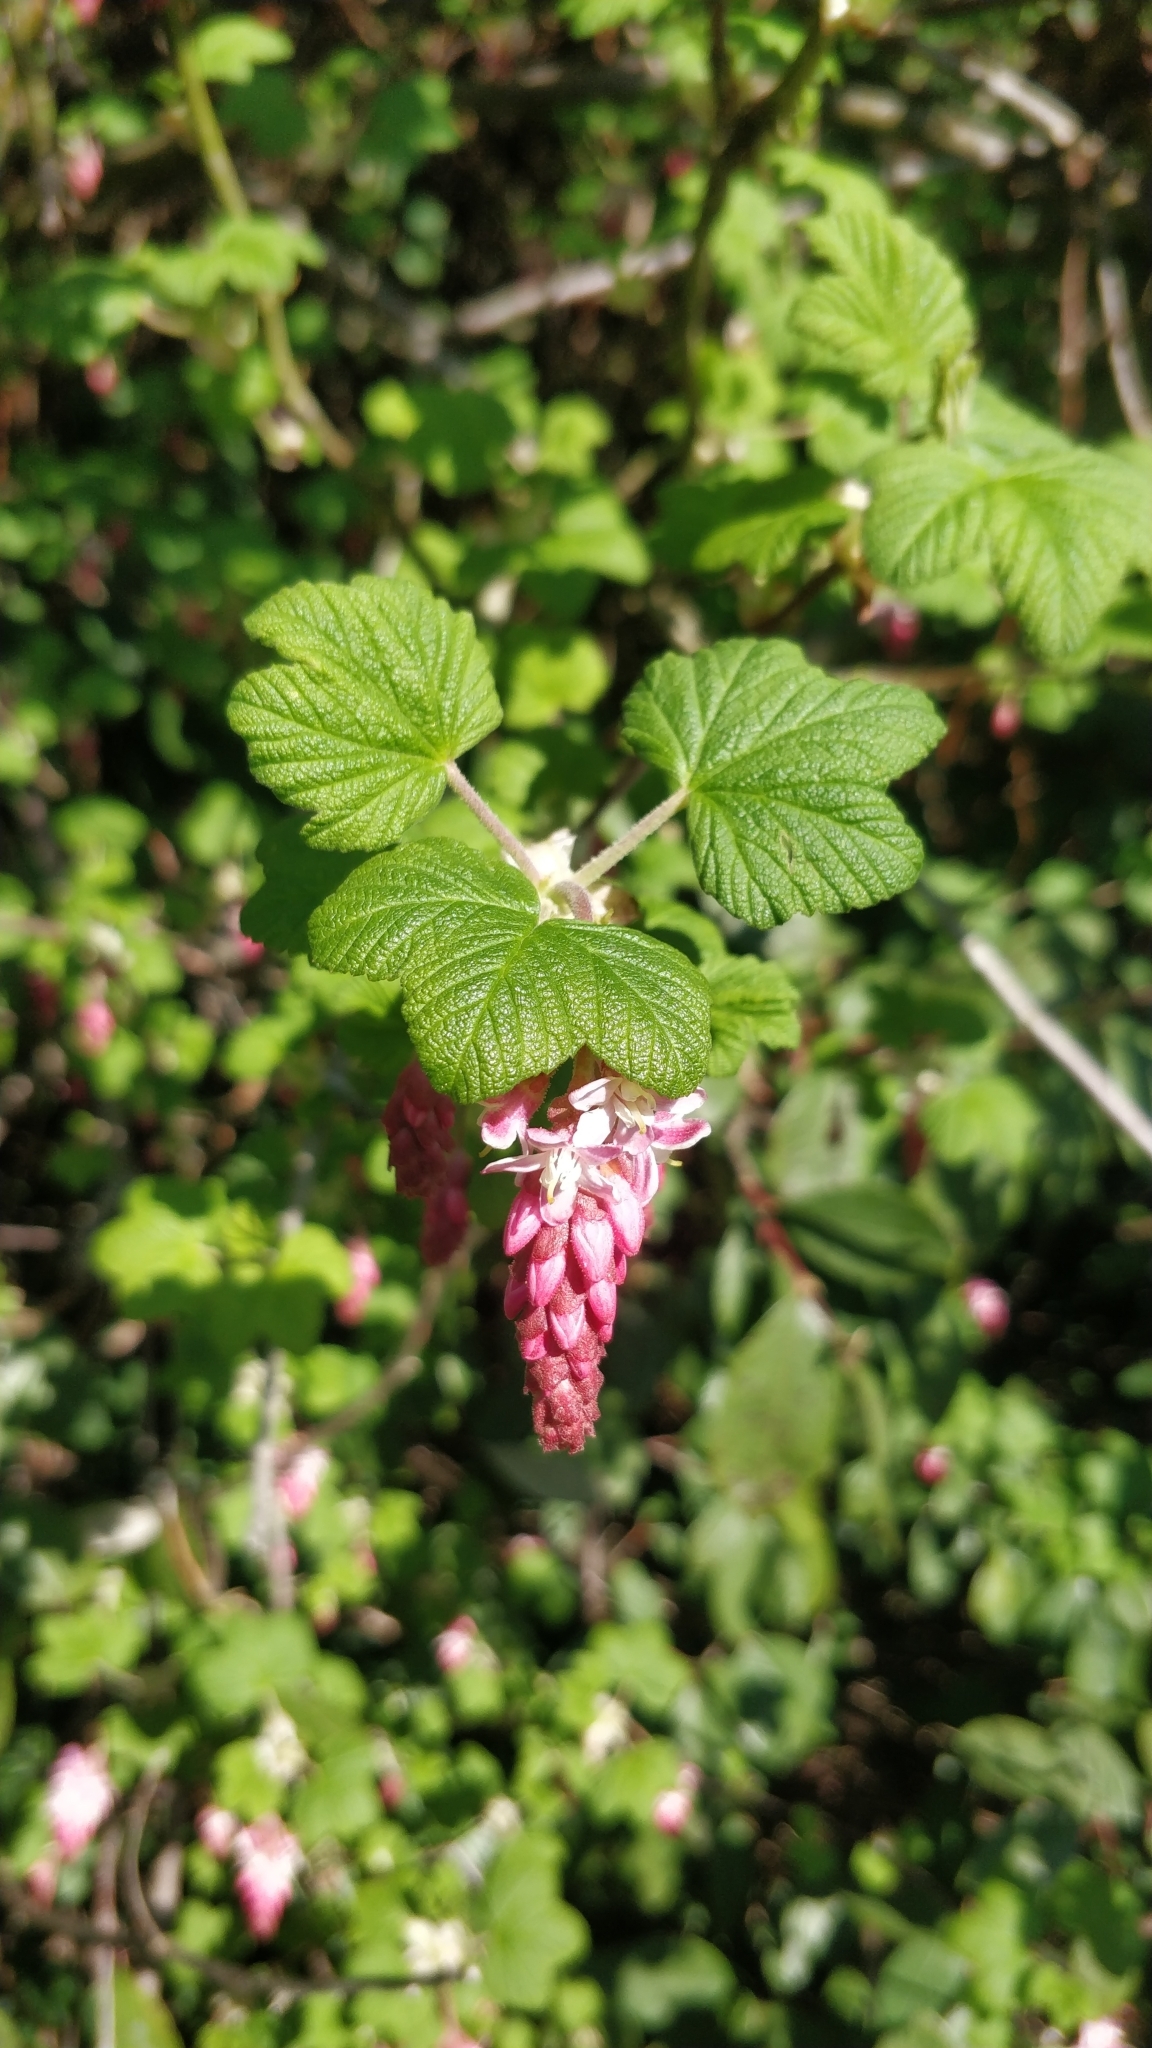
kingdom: Plantae
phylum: Tracheophyta
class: Magnoliopsida
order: Saxifragales
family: Grossulariaceae
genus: Ribes
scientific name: Ribes sanguineum
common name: Flowering currant
